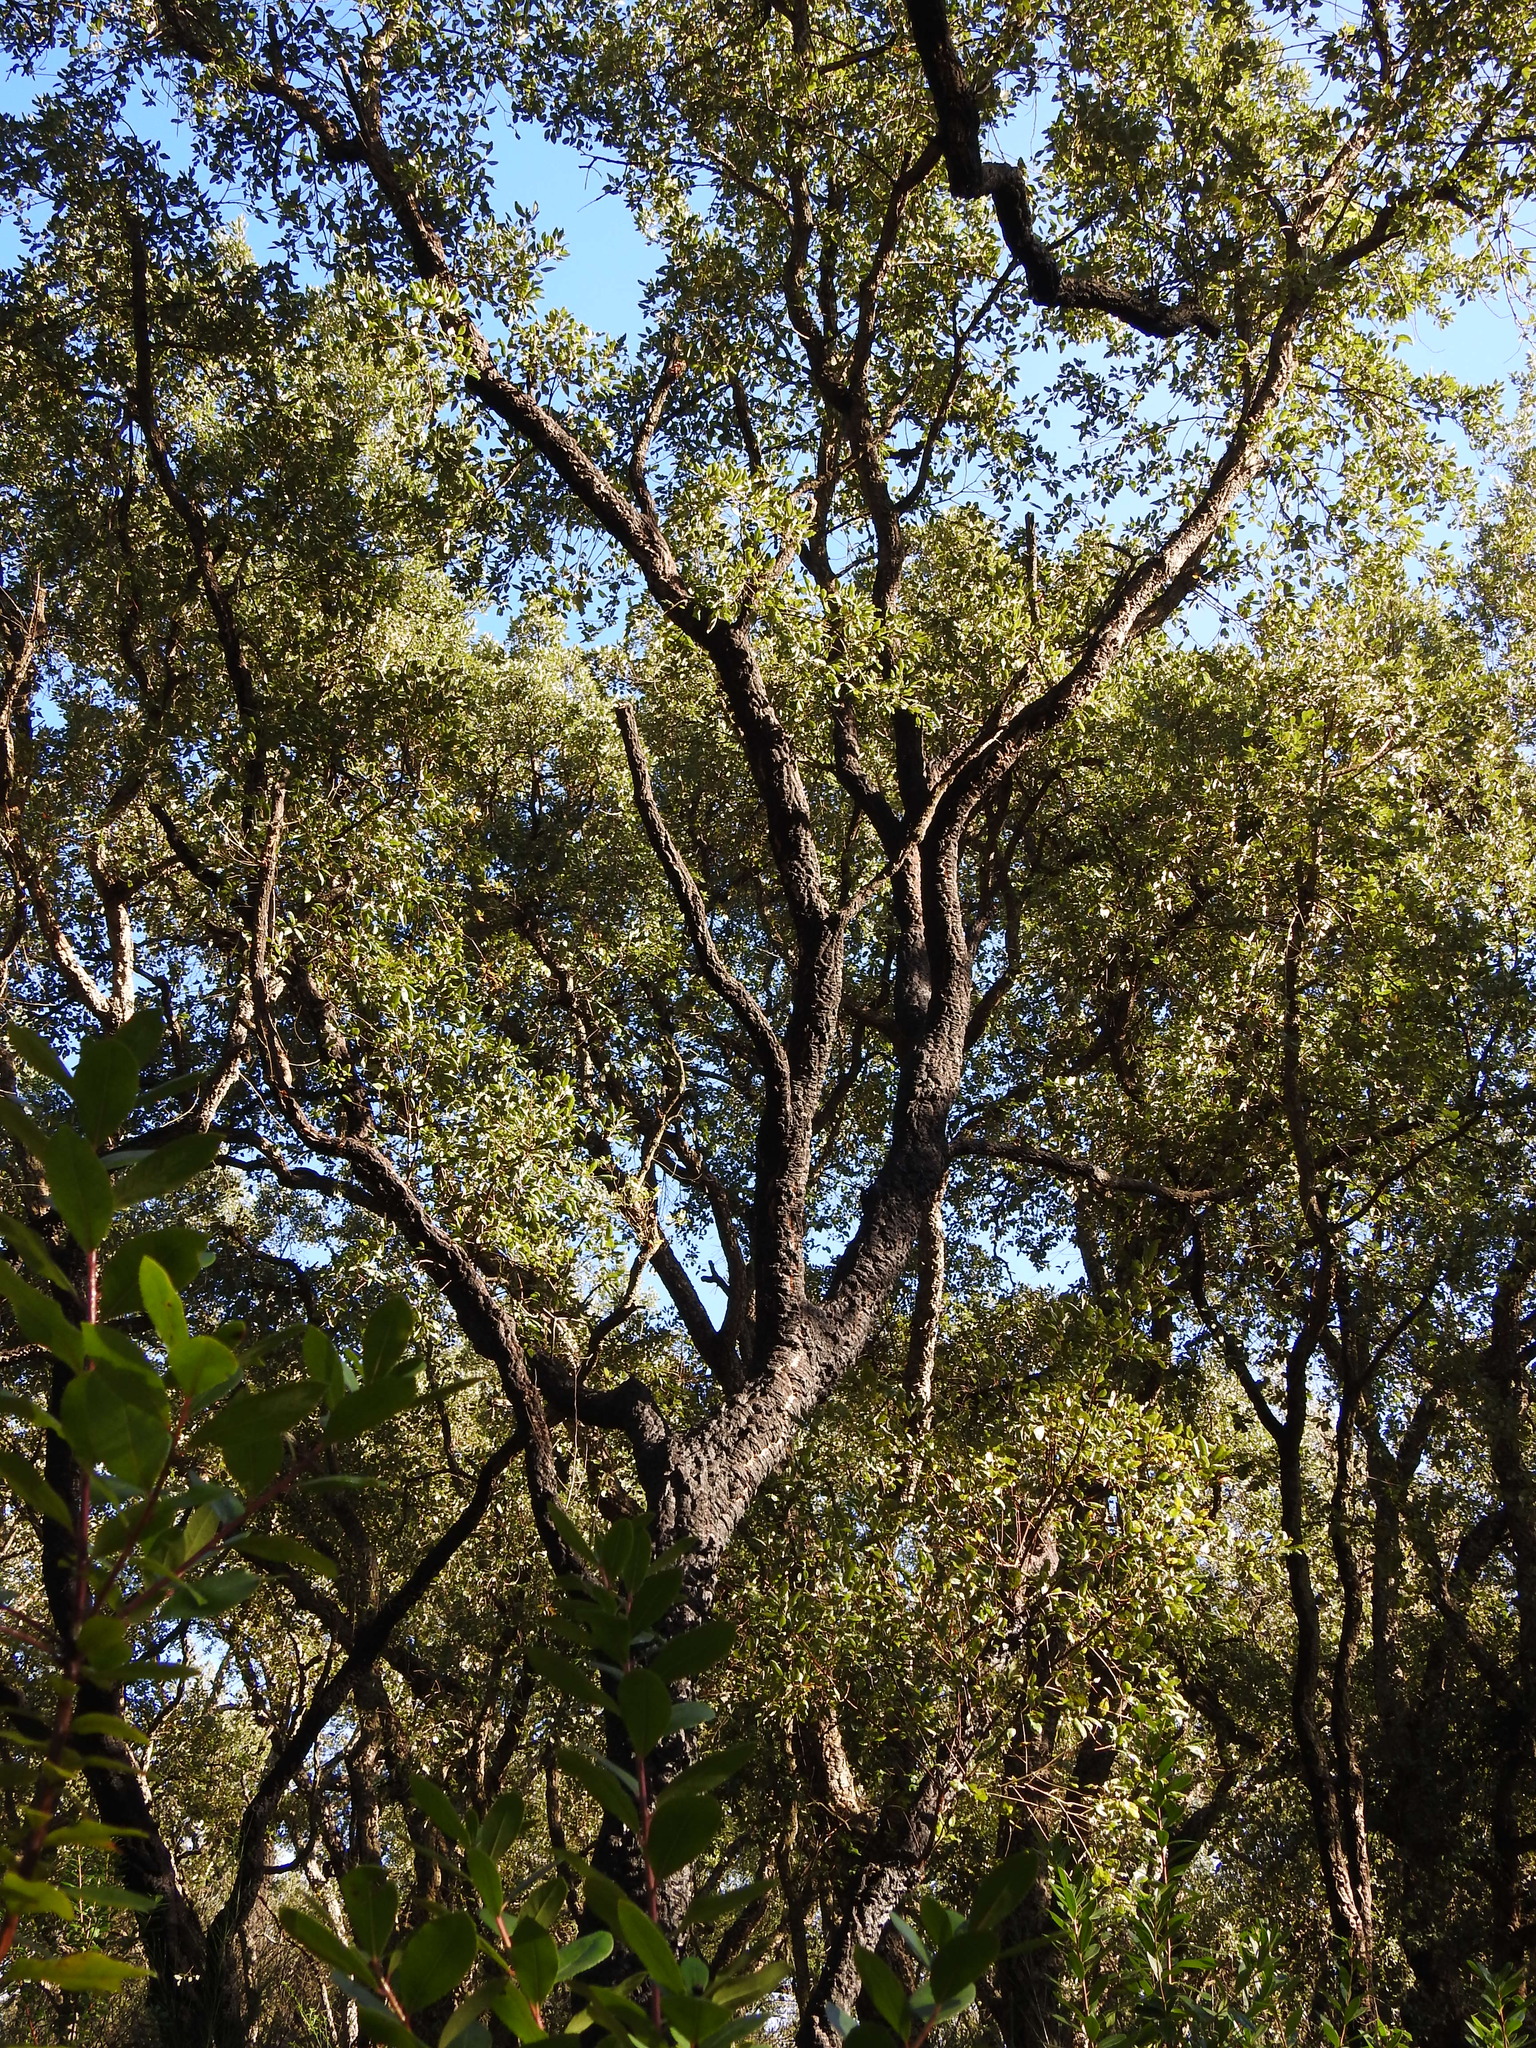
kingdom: Plantae
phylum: Tracheophyta
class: Magnoliopsida
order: Fagales
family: Fagaceae
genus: Quercus
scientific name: Quercus suber
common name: Cork oak
